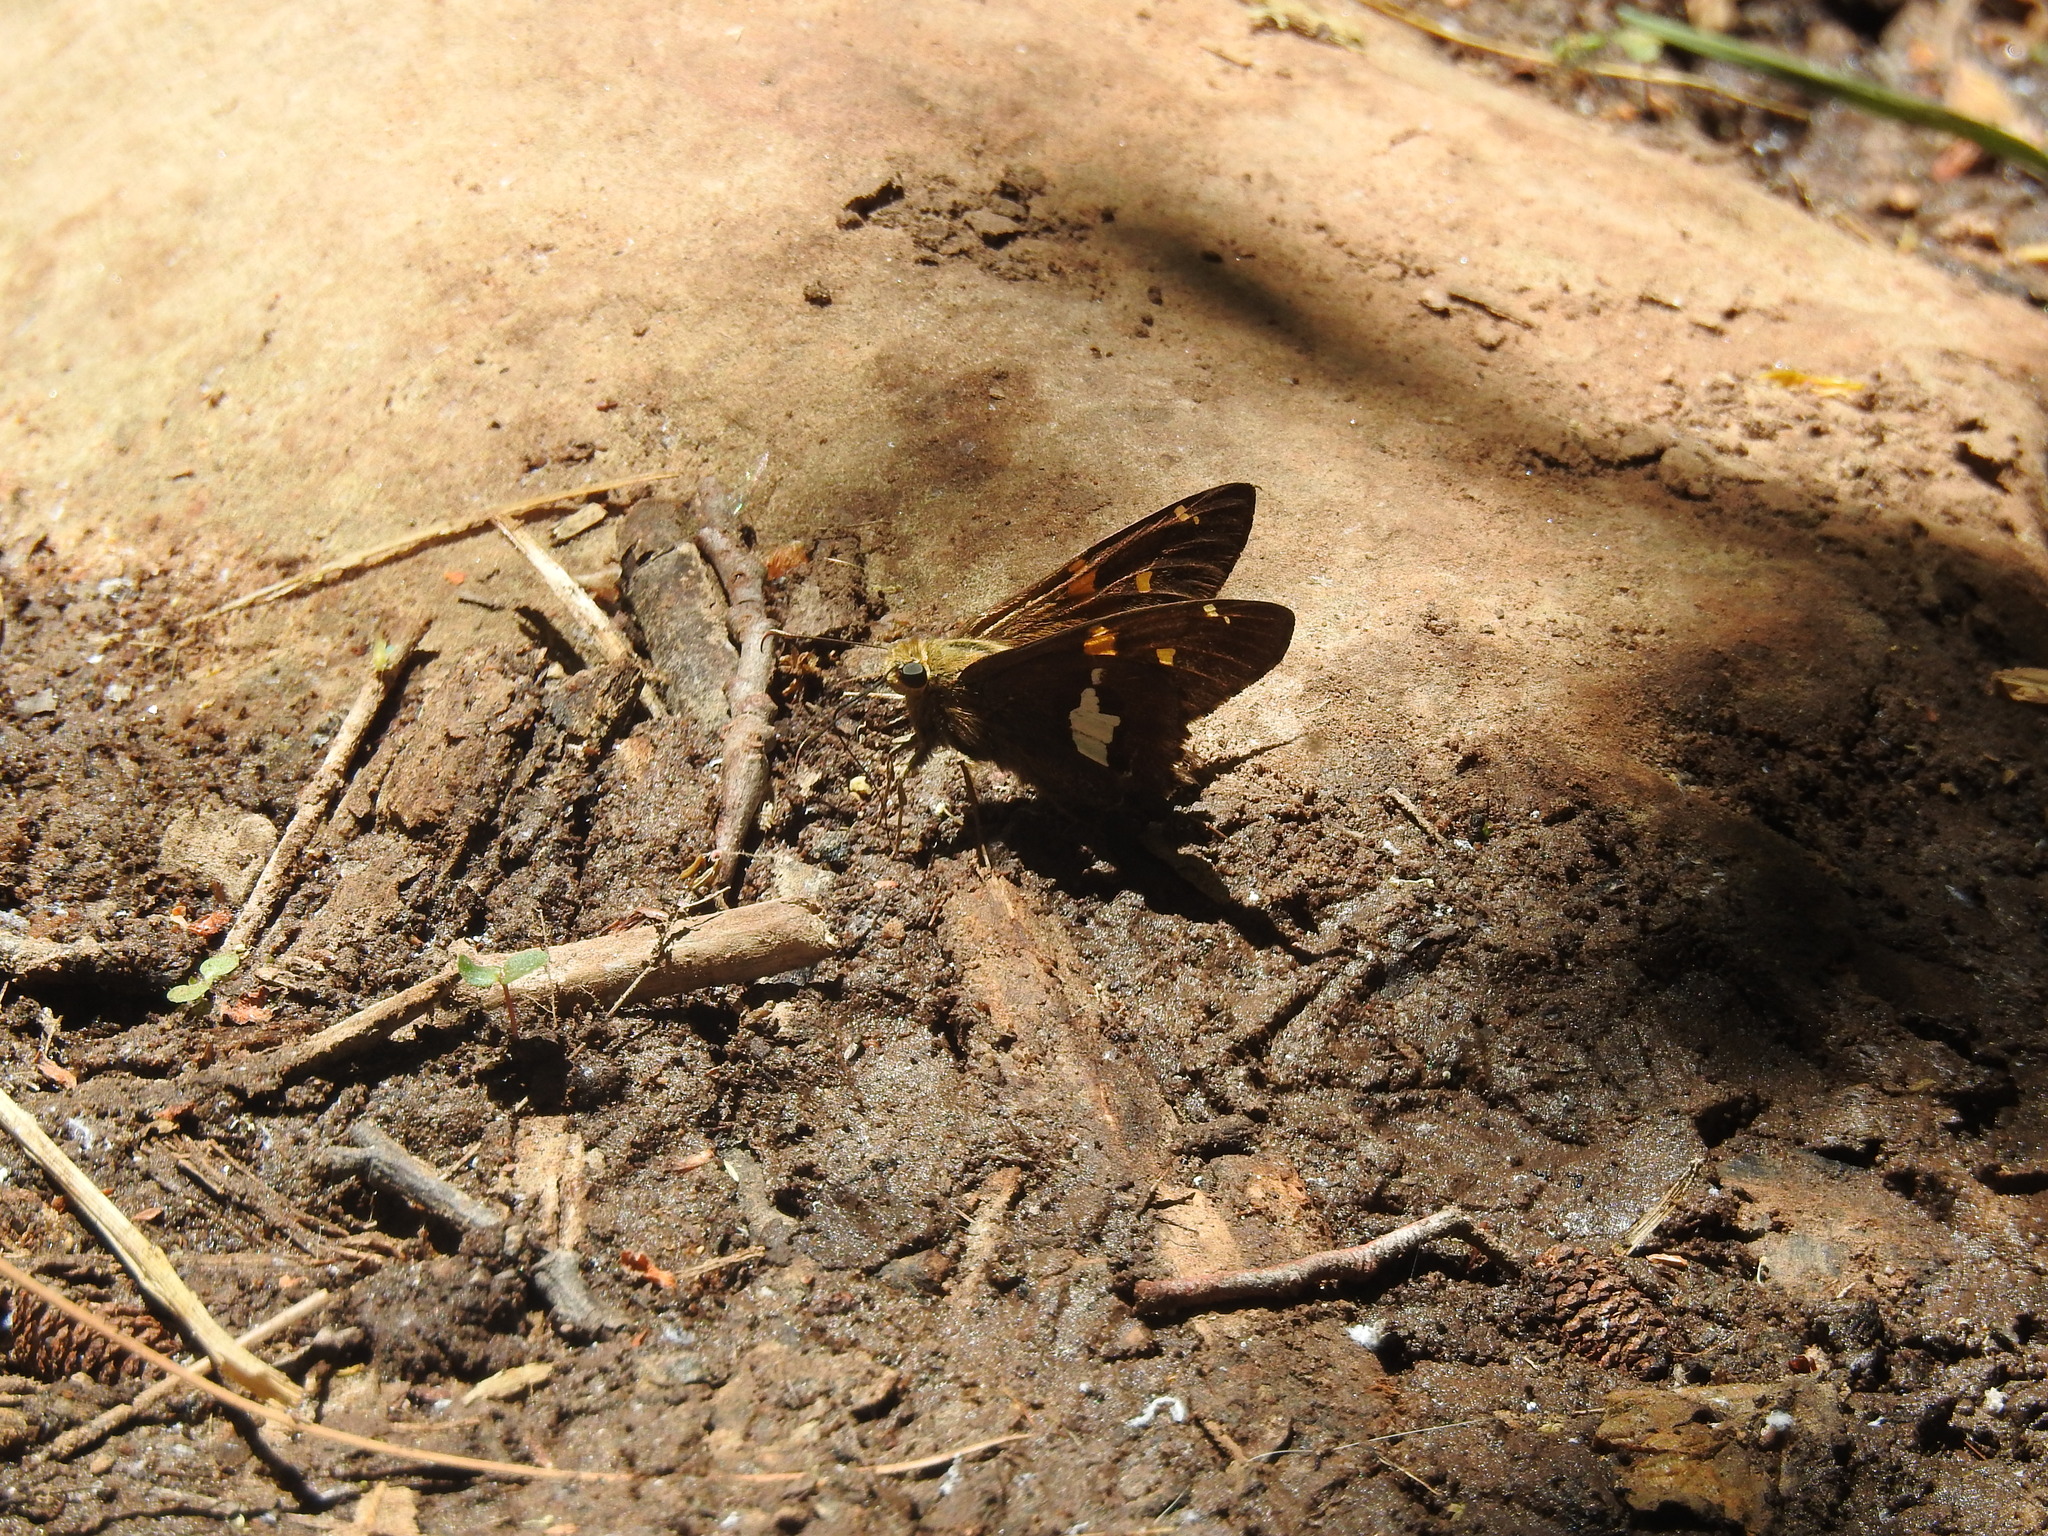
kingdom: Animalia
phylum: Arthropoda
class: Insecta
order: Lepidoptera
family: Hesperiidae
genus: Epargyreus
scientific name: Epargyreus clarus
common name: Silver-spotted skipper
